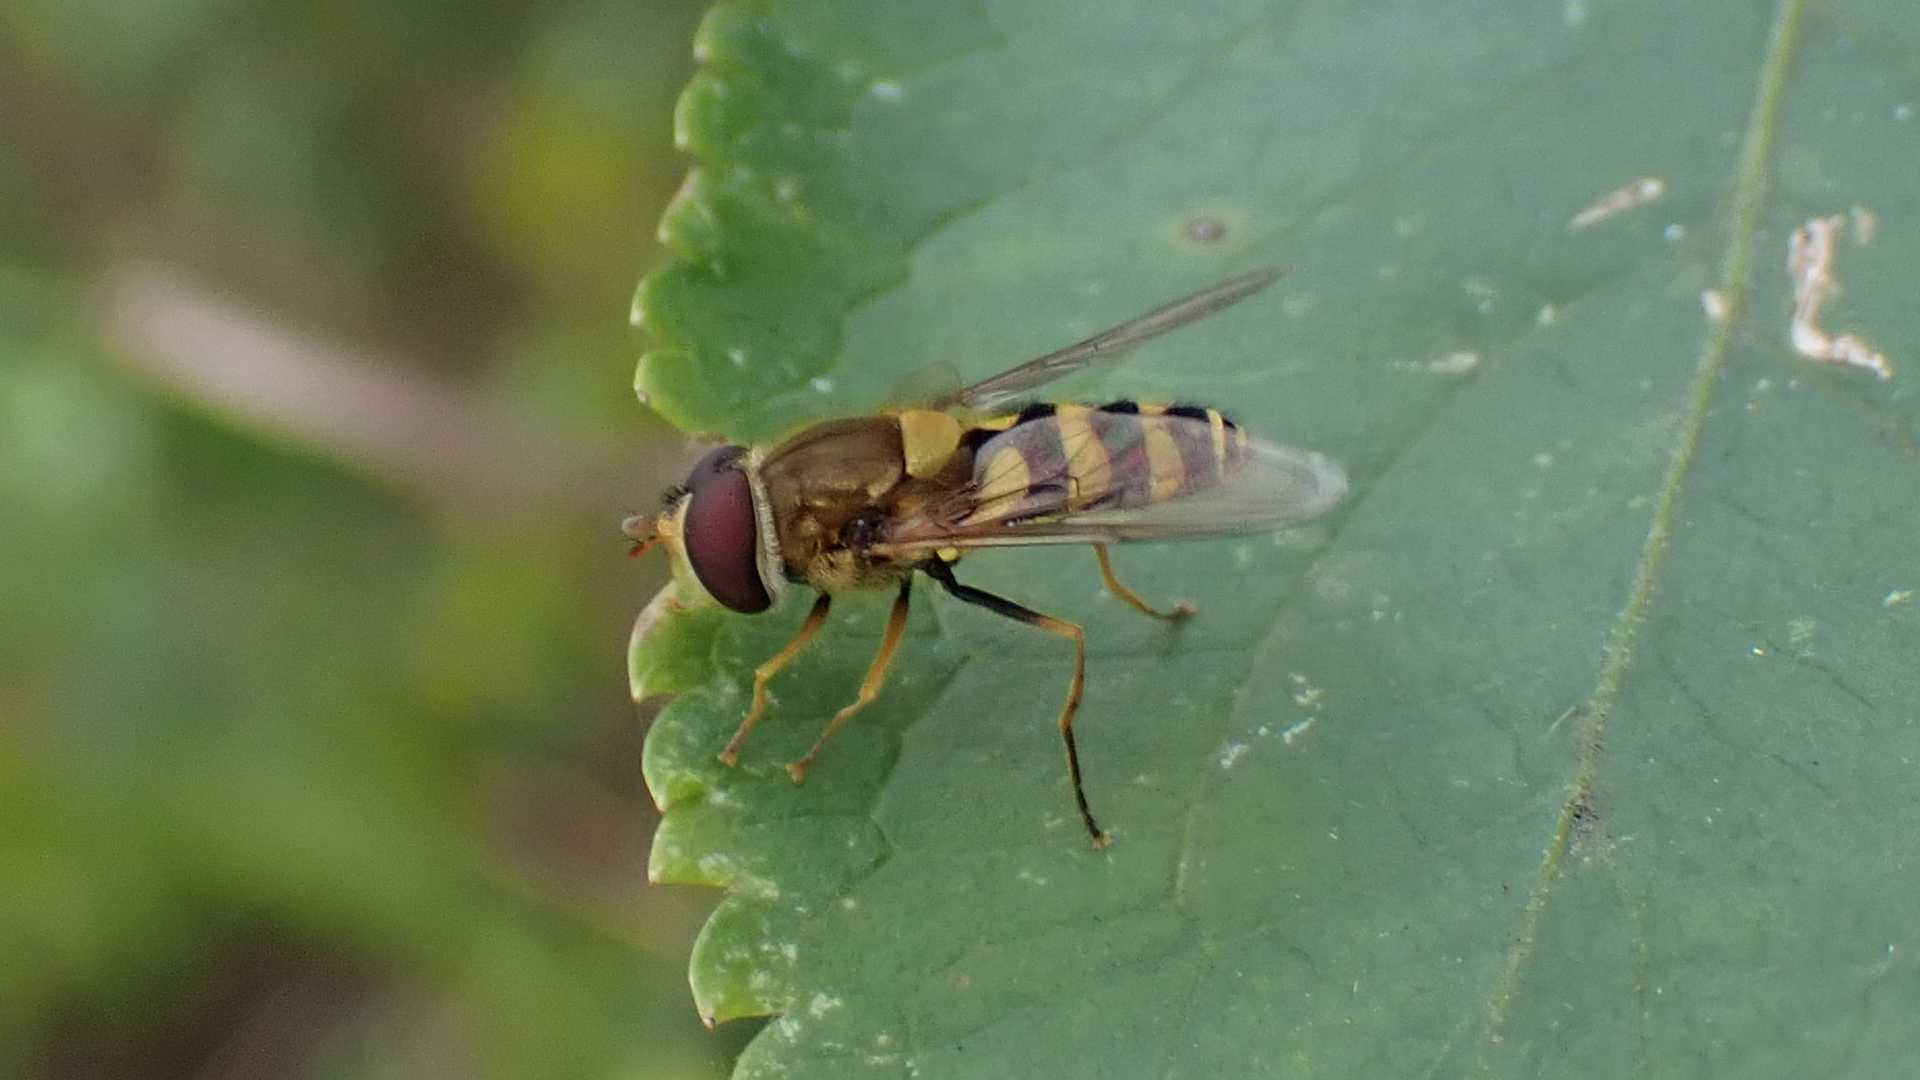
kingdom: Animalia
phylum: Arthropoda
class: Insecta
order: Diptera
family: Syrphidae
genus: Syrphus
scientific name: Syrphus
